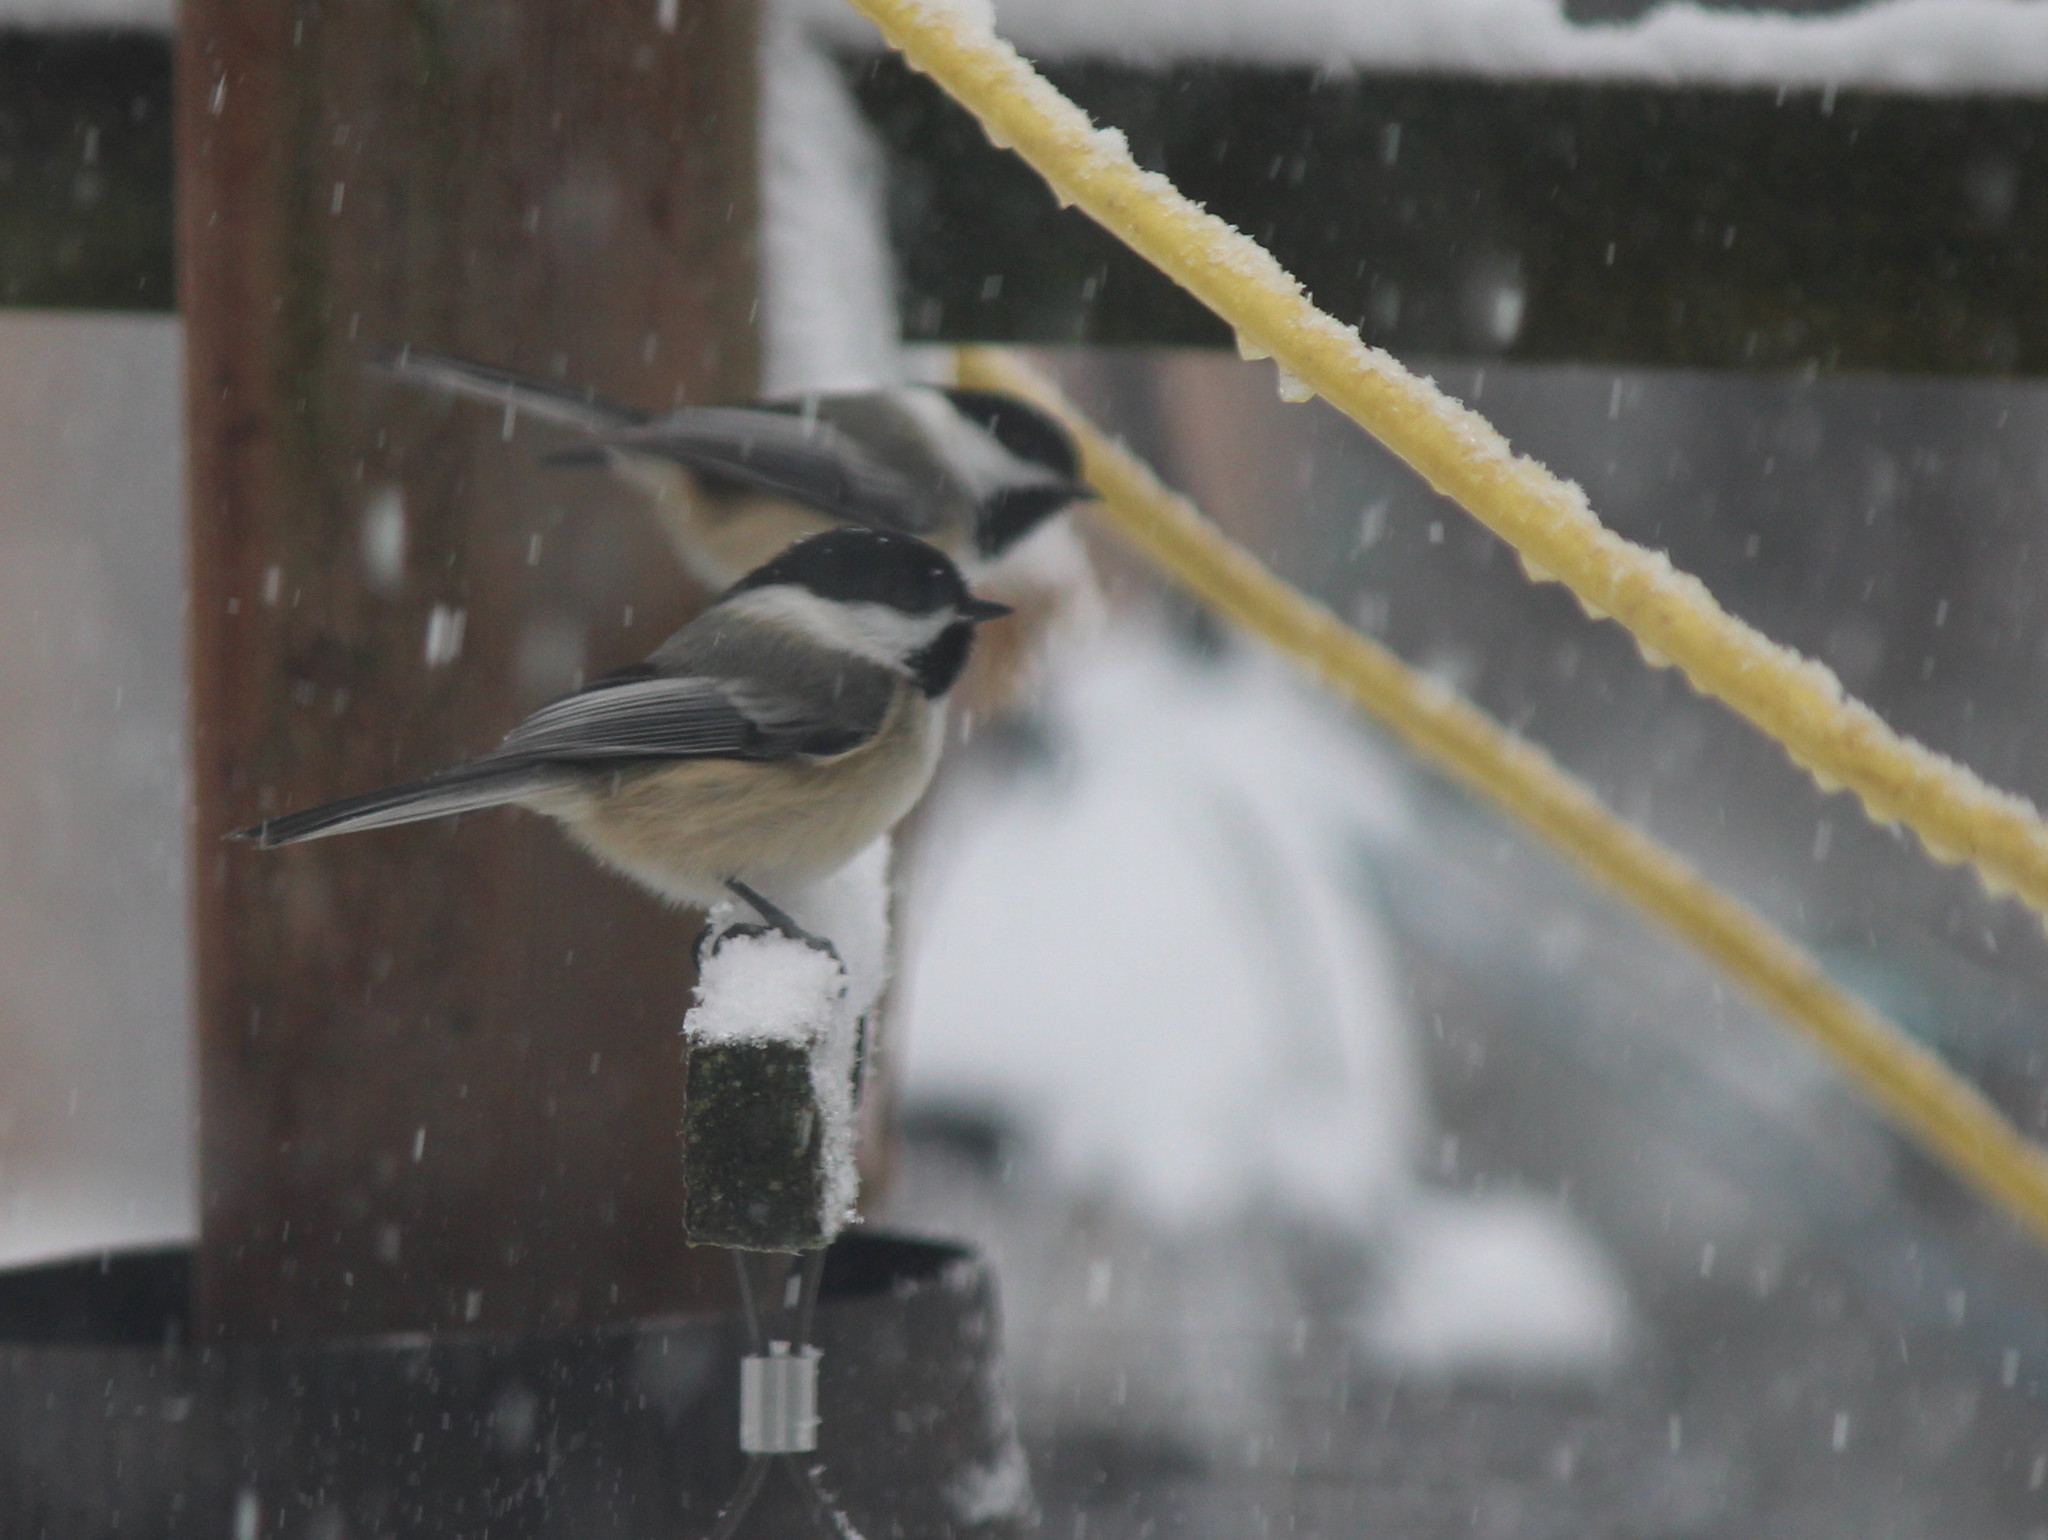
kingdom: Animalia
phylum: Chordata
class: Aves
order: Passeriformes
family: Paridae
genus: Poecile
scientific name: Poecile atricapillus
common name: Black-capped chickadee
